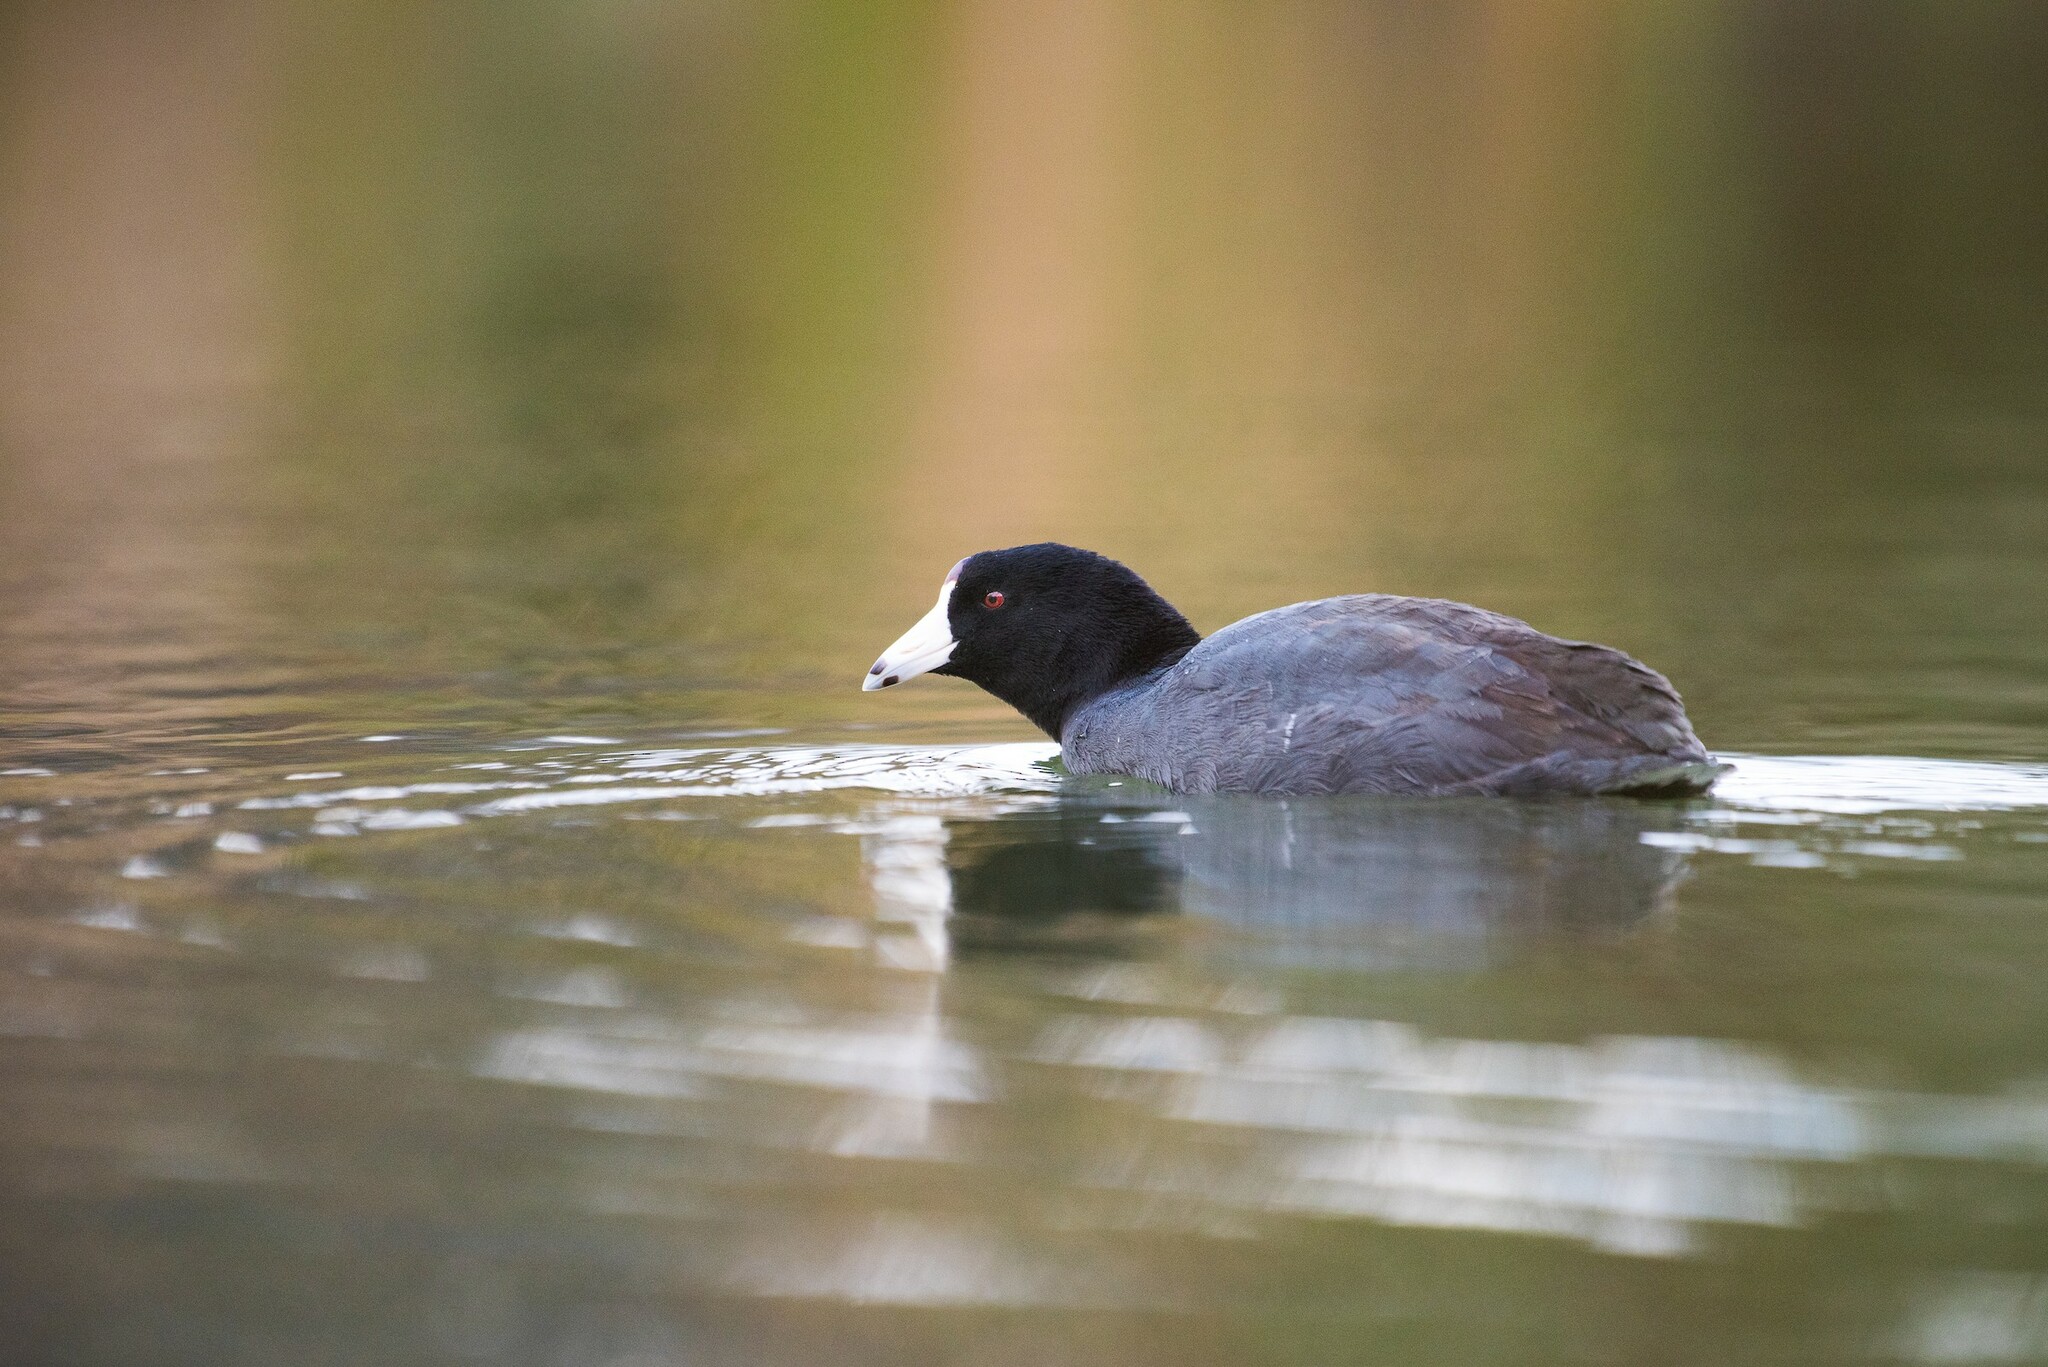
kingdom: Animalia
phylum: Chordata
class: Aves
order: Gruiformes
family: Rallidae
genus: Fulica
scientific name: Fulica americana
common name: American coot
